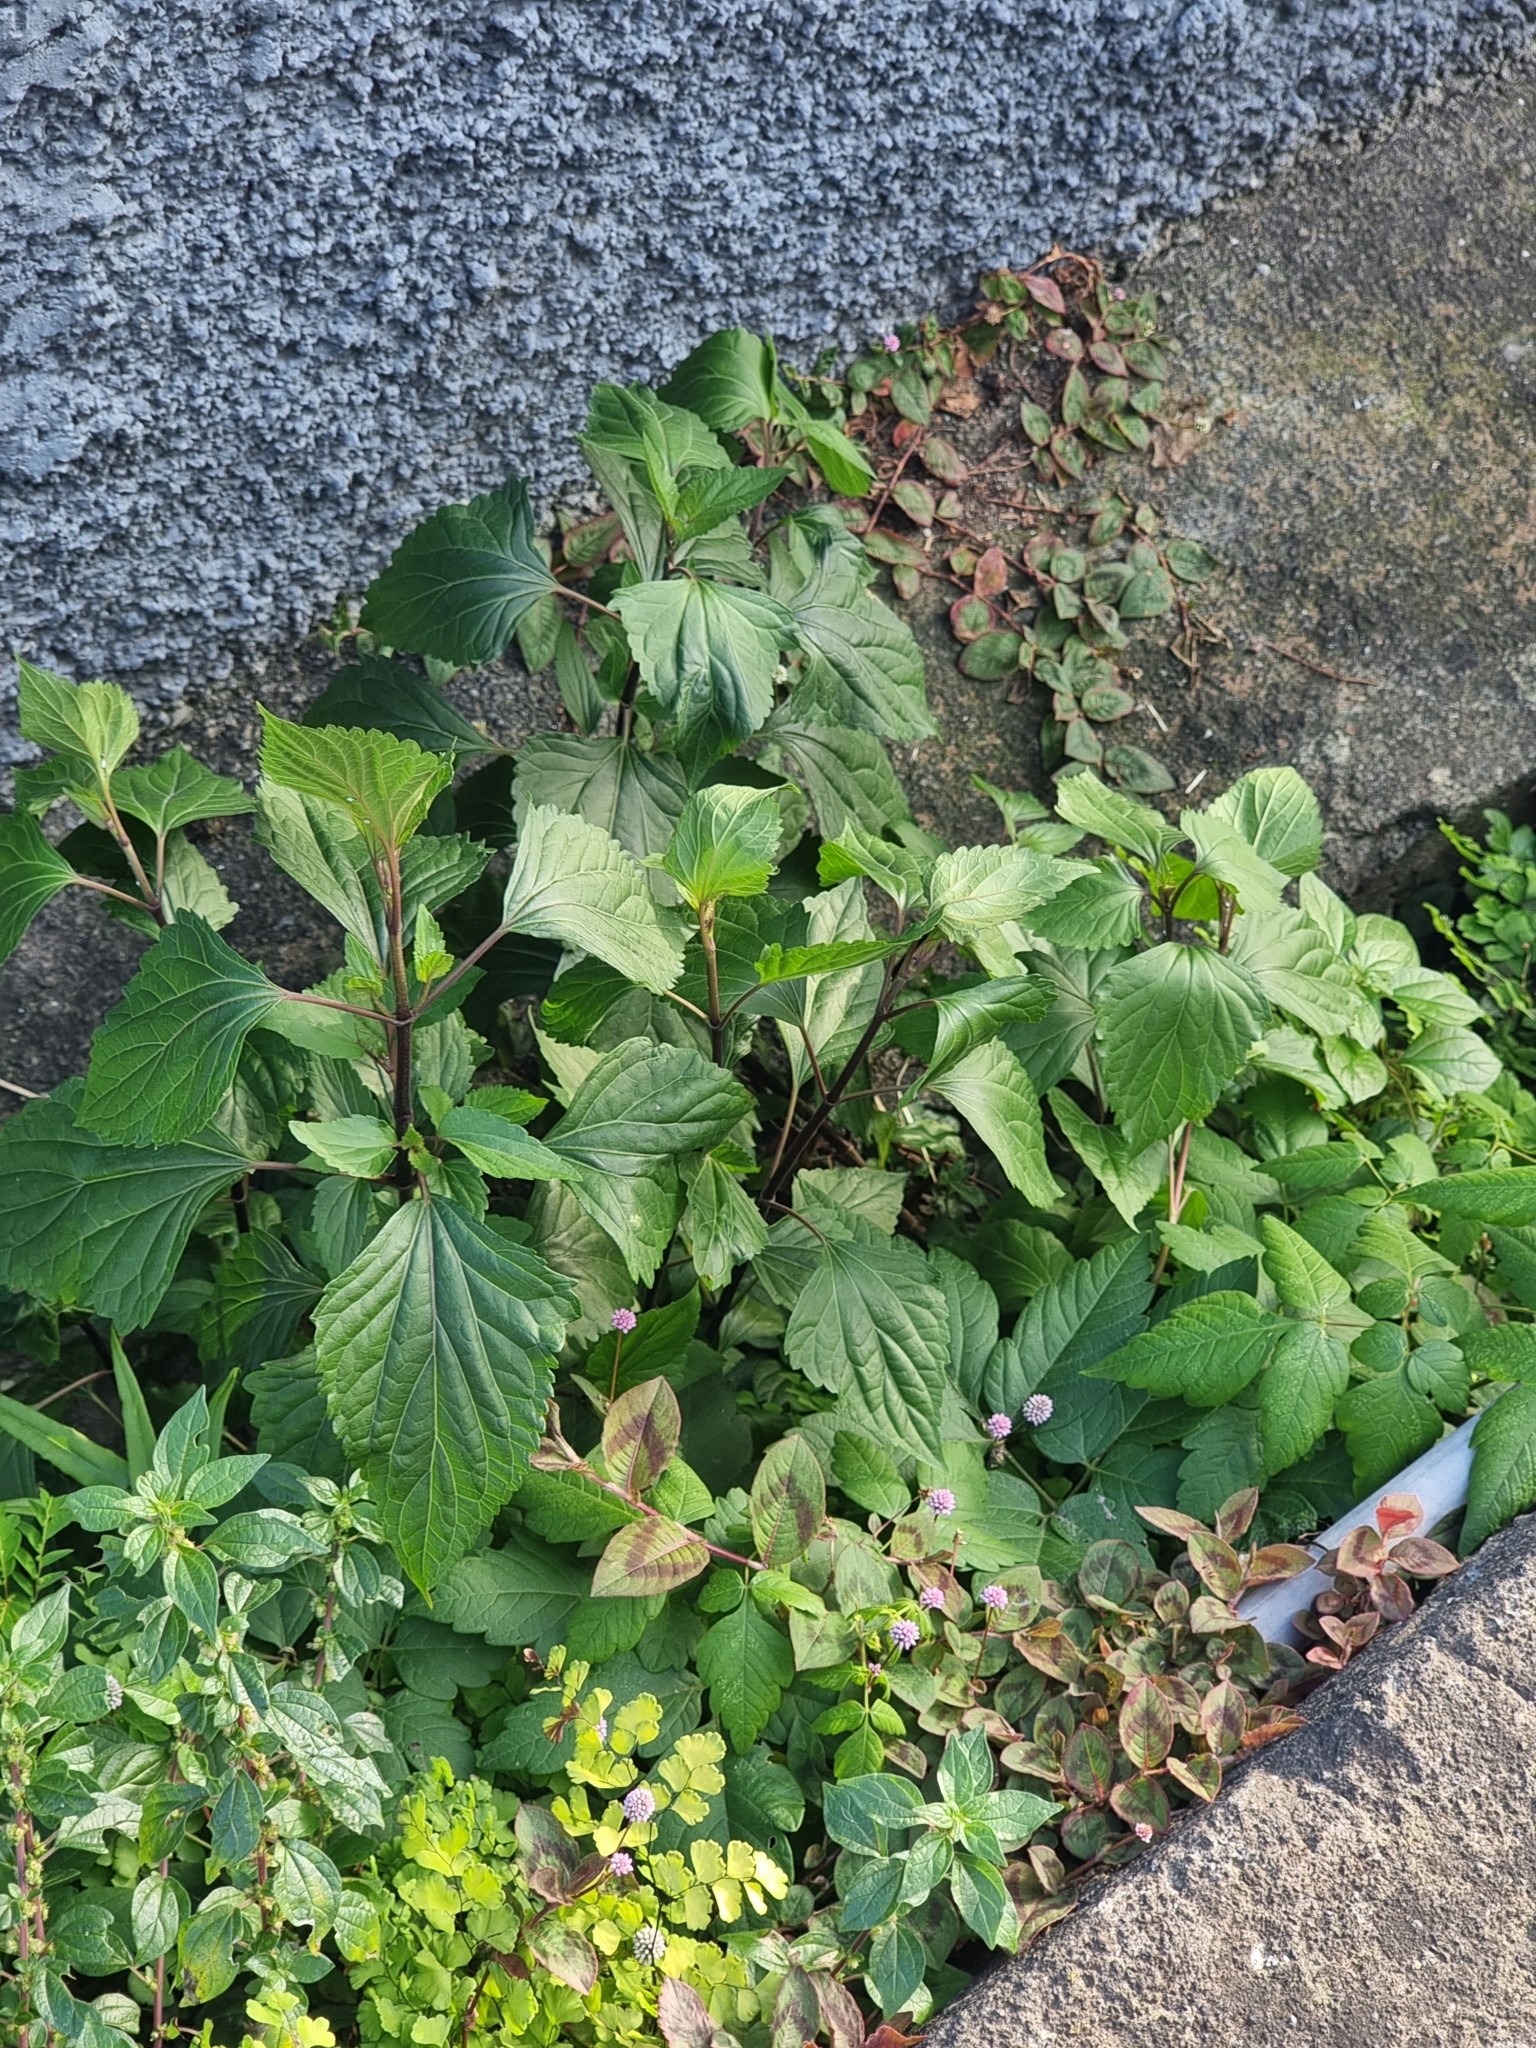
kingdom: Plantae
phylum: Tracheophyta
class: Magnoliopsida
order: Asterales
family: Asteraceae
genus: Ageratina
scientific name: Ageratina adenophora
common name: Sticky snakeroot
